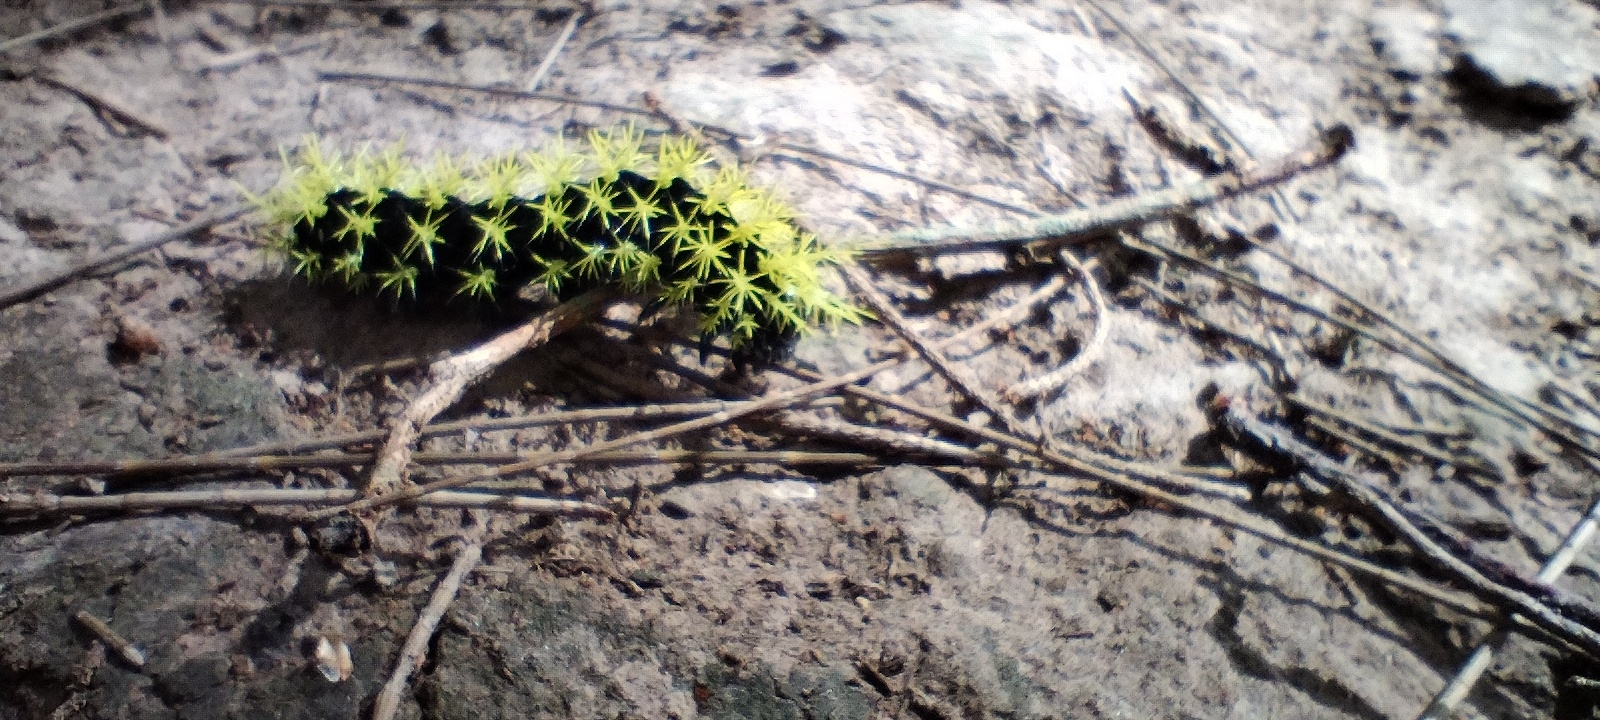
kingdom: Animalia
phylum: Arthropoda
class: Insecta
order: Lepidoptera
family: Saturniidae
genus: Leucanella
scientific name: Leucanella viridescens
